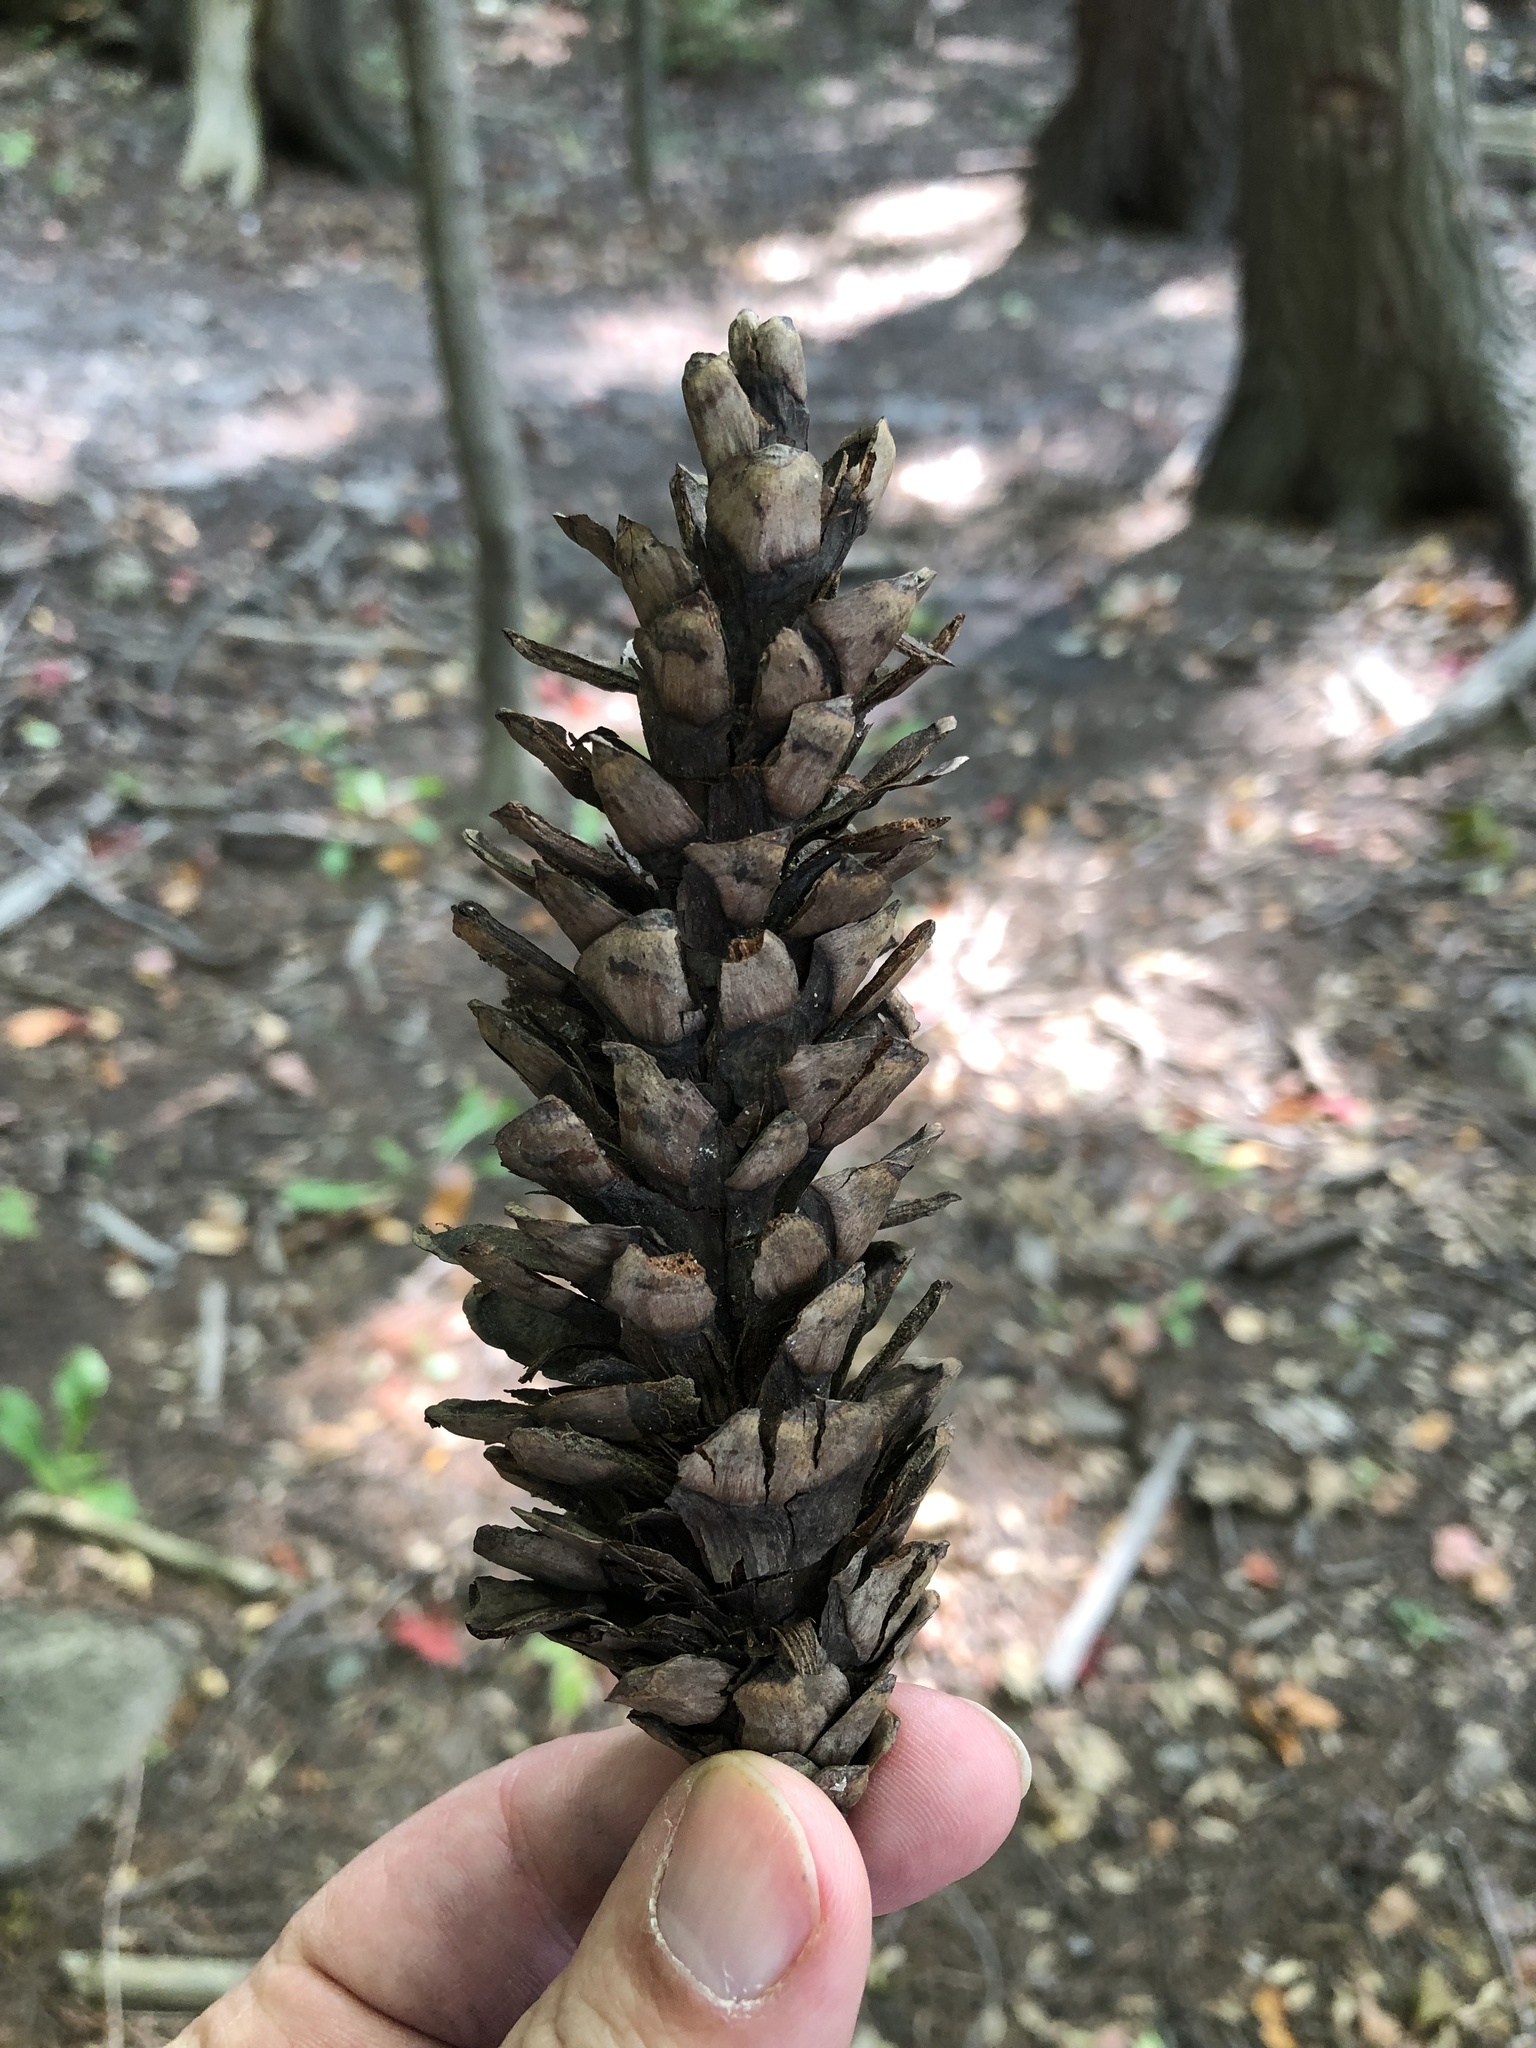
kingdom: Plantae
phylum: Tracheophyta
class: Pinopsida
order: Pinales
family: Pinaceae
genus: Pinus
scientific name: Pinus strobus
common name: Weymouth pine
